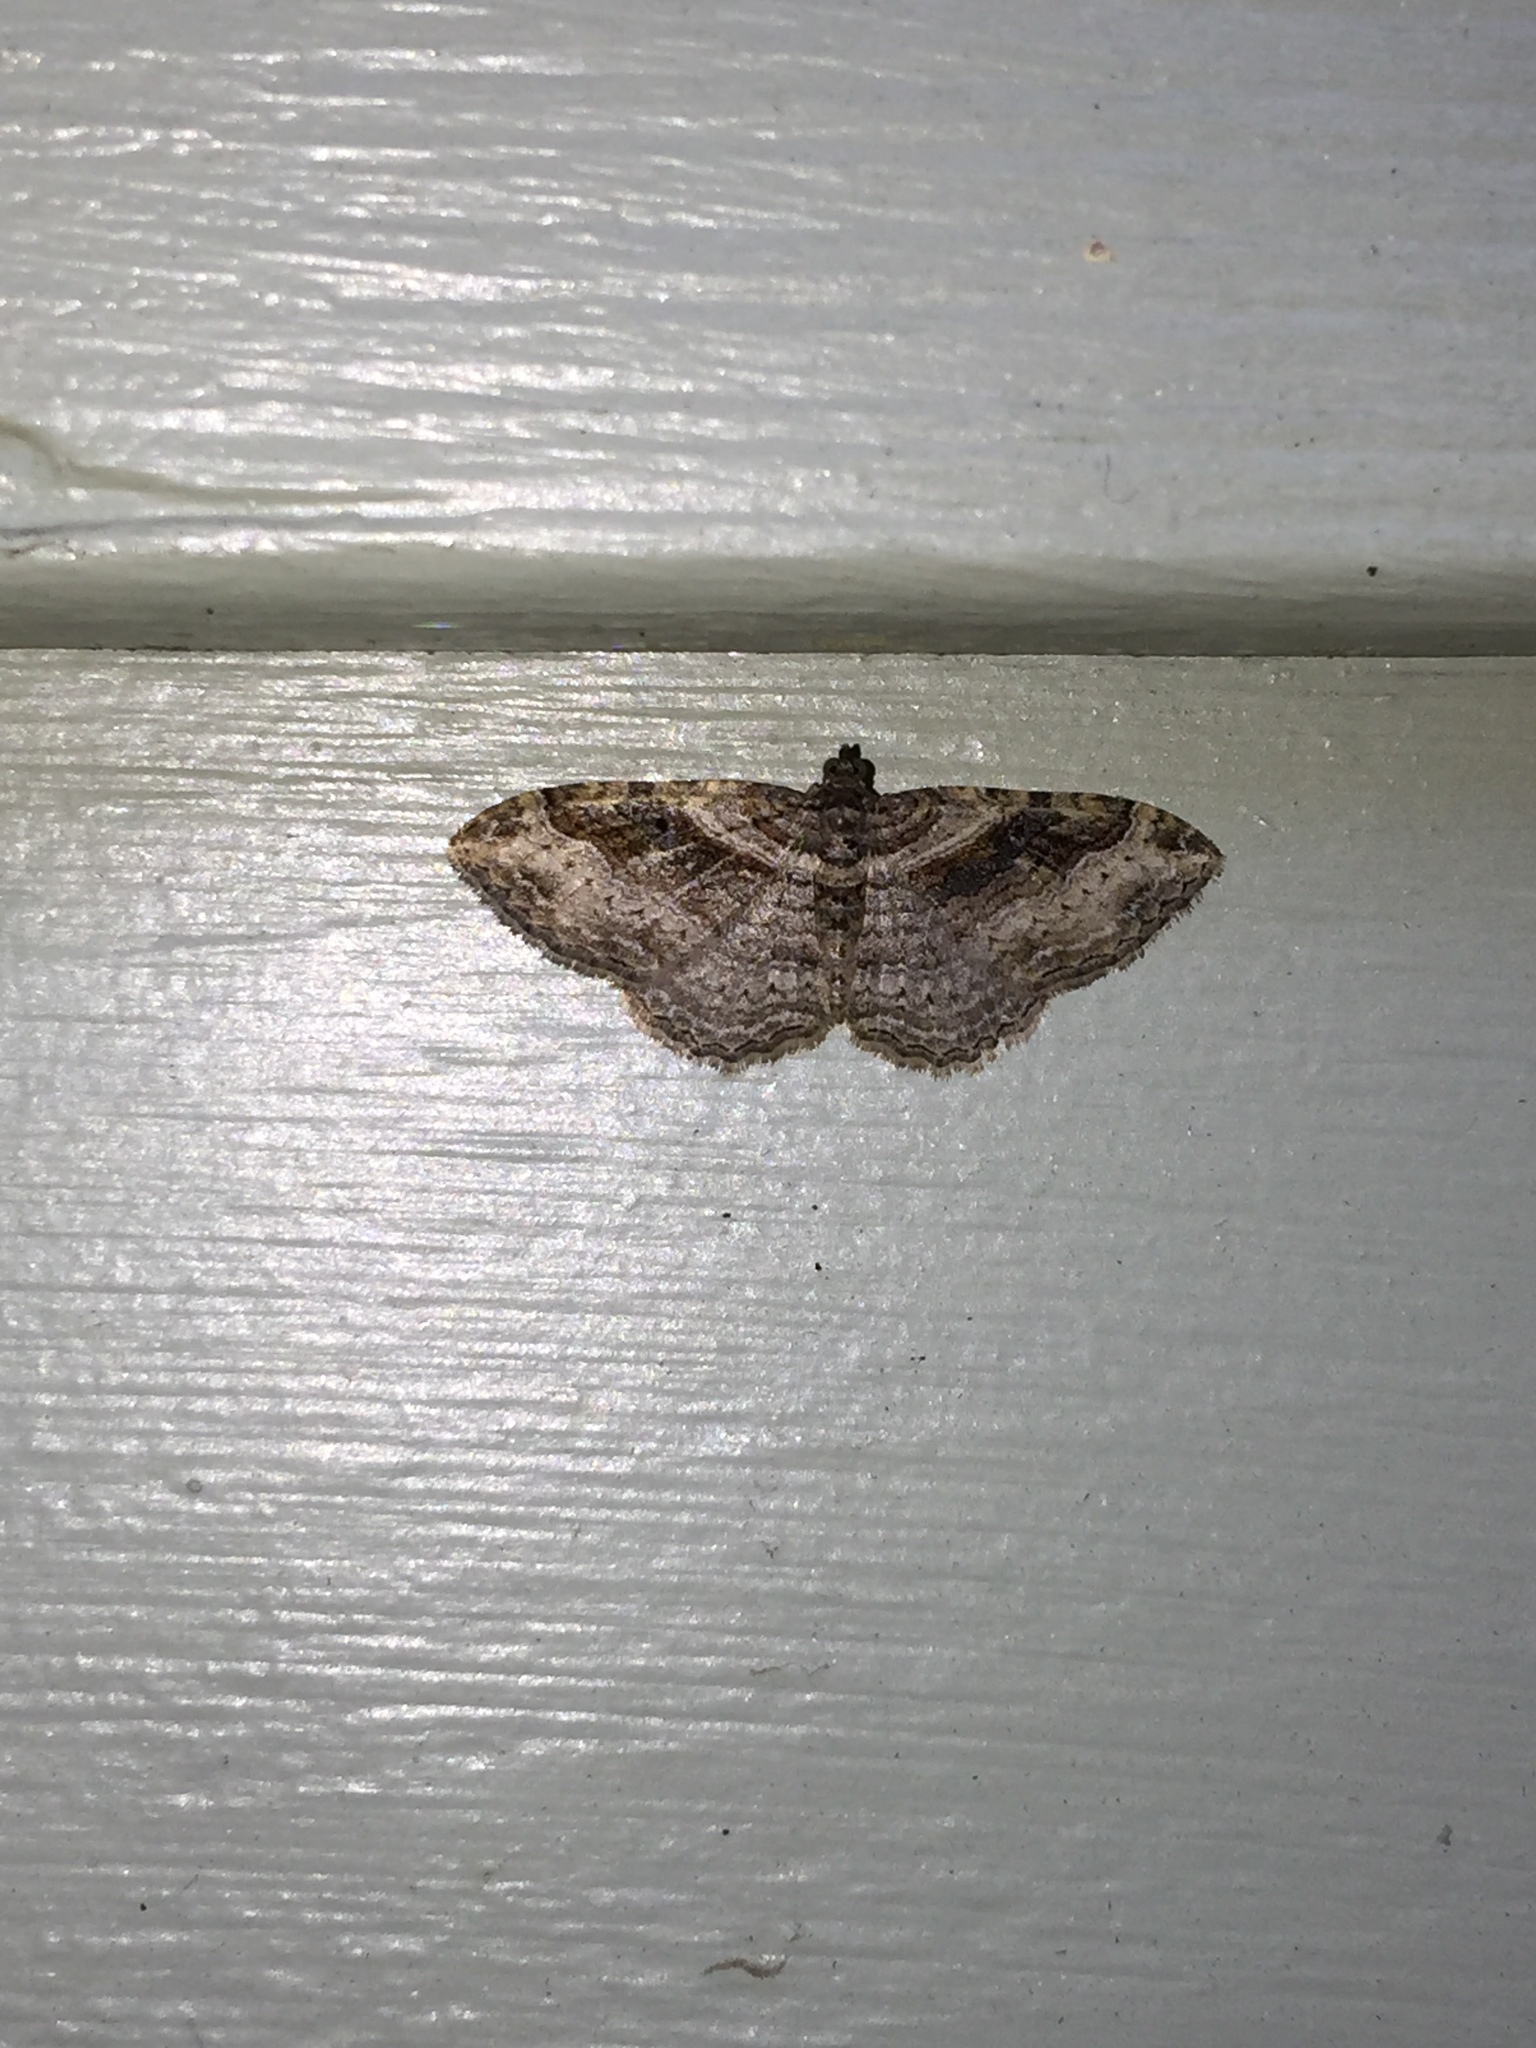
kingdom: Animalia
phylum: Arthropoda
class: Insecta
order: Lepidoptera
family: Geometridae
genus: Costaconvexa
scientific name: Costaconvexa centrostrigaria
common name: Bent-line carpet
